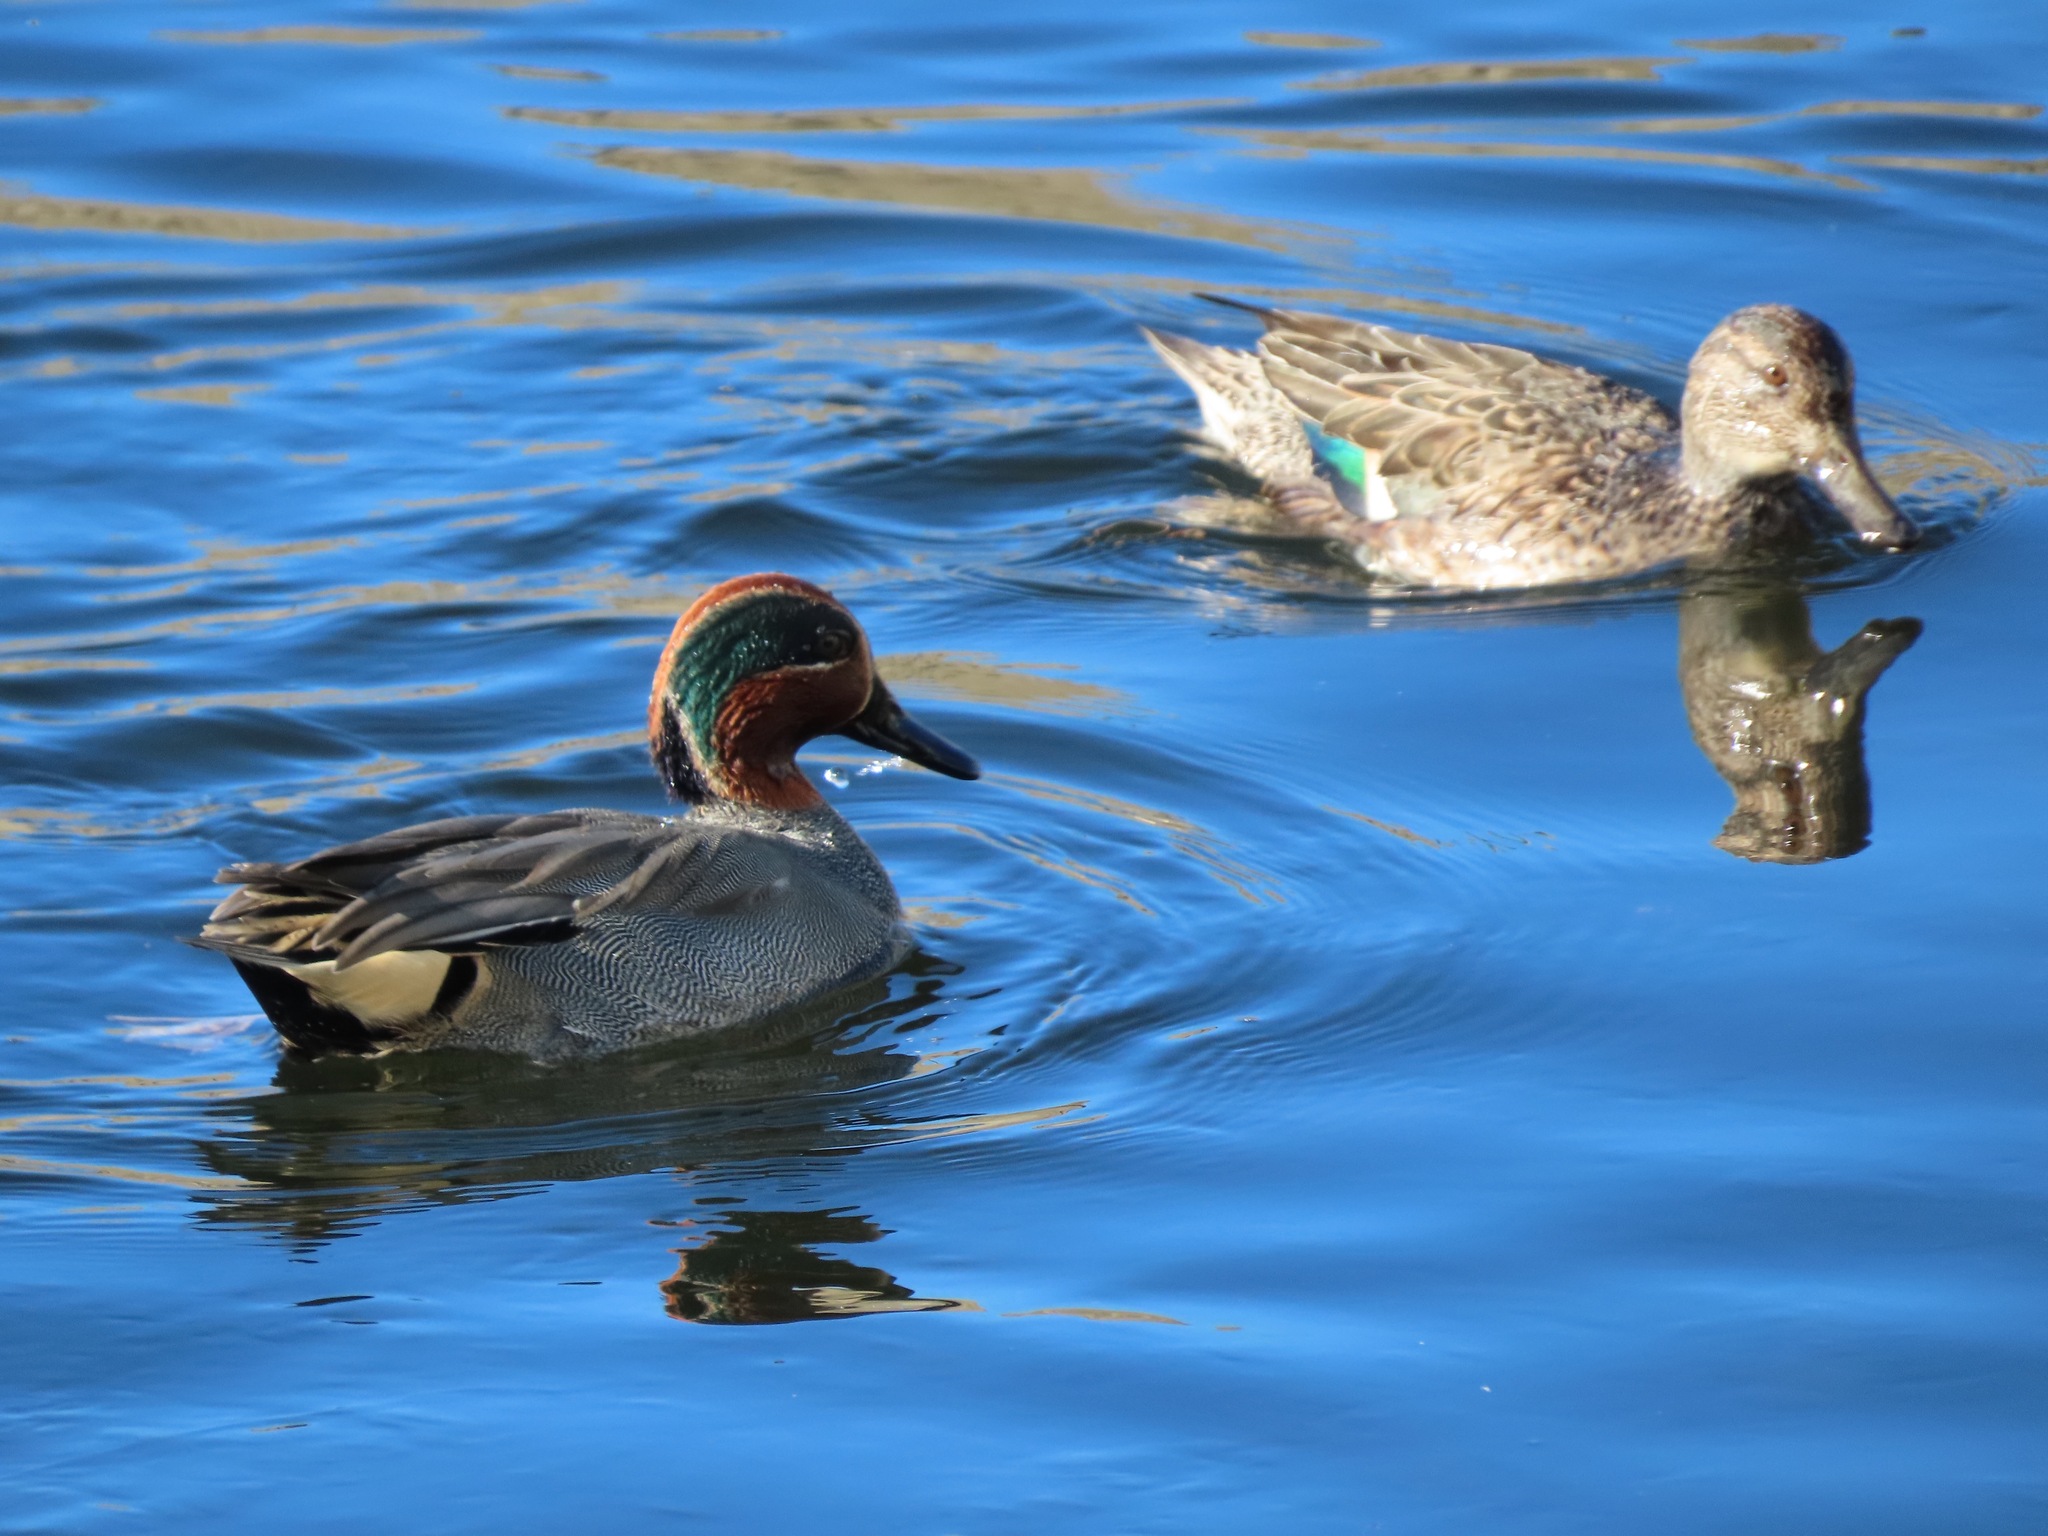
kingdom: Animalia
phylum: Chordata
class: Aves
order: Anseriformes
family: Anatidae
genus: Anas
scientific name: Anas crecca
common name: Eurasian teal
